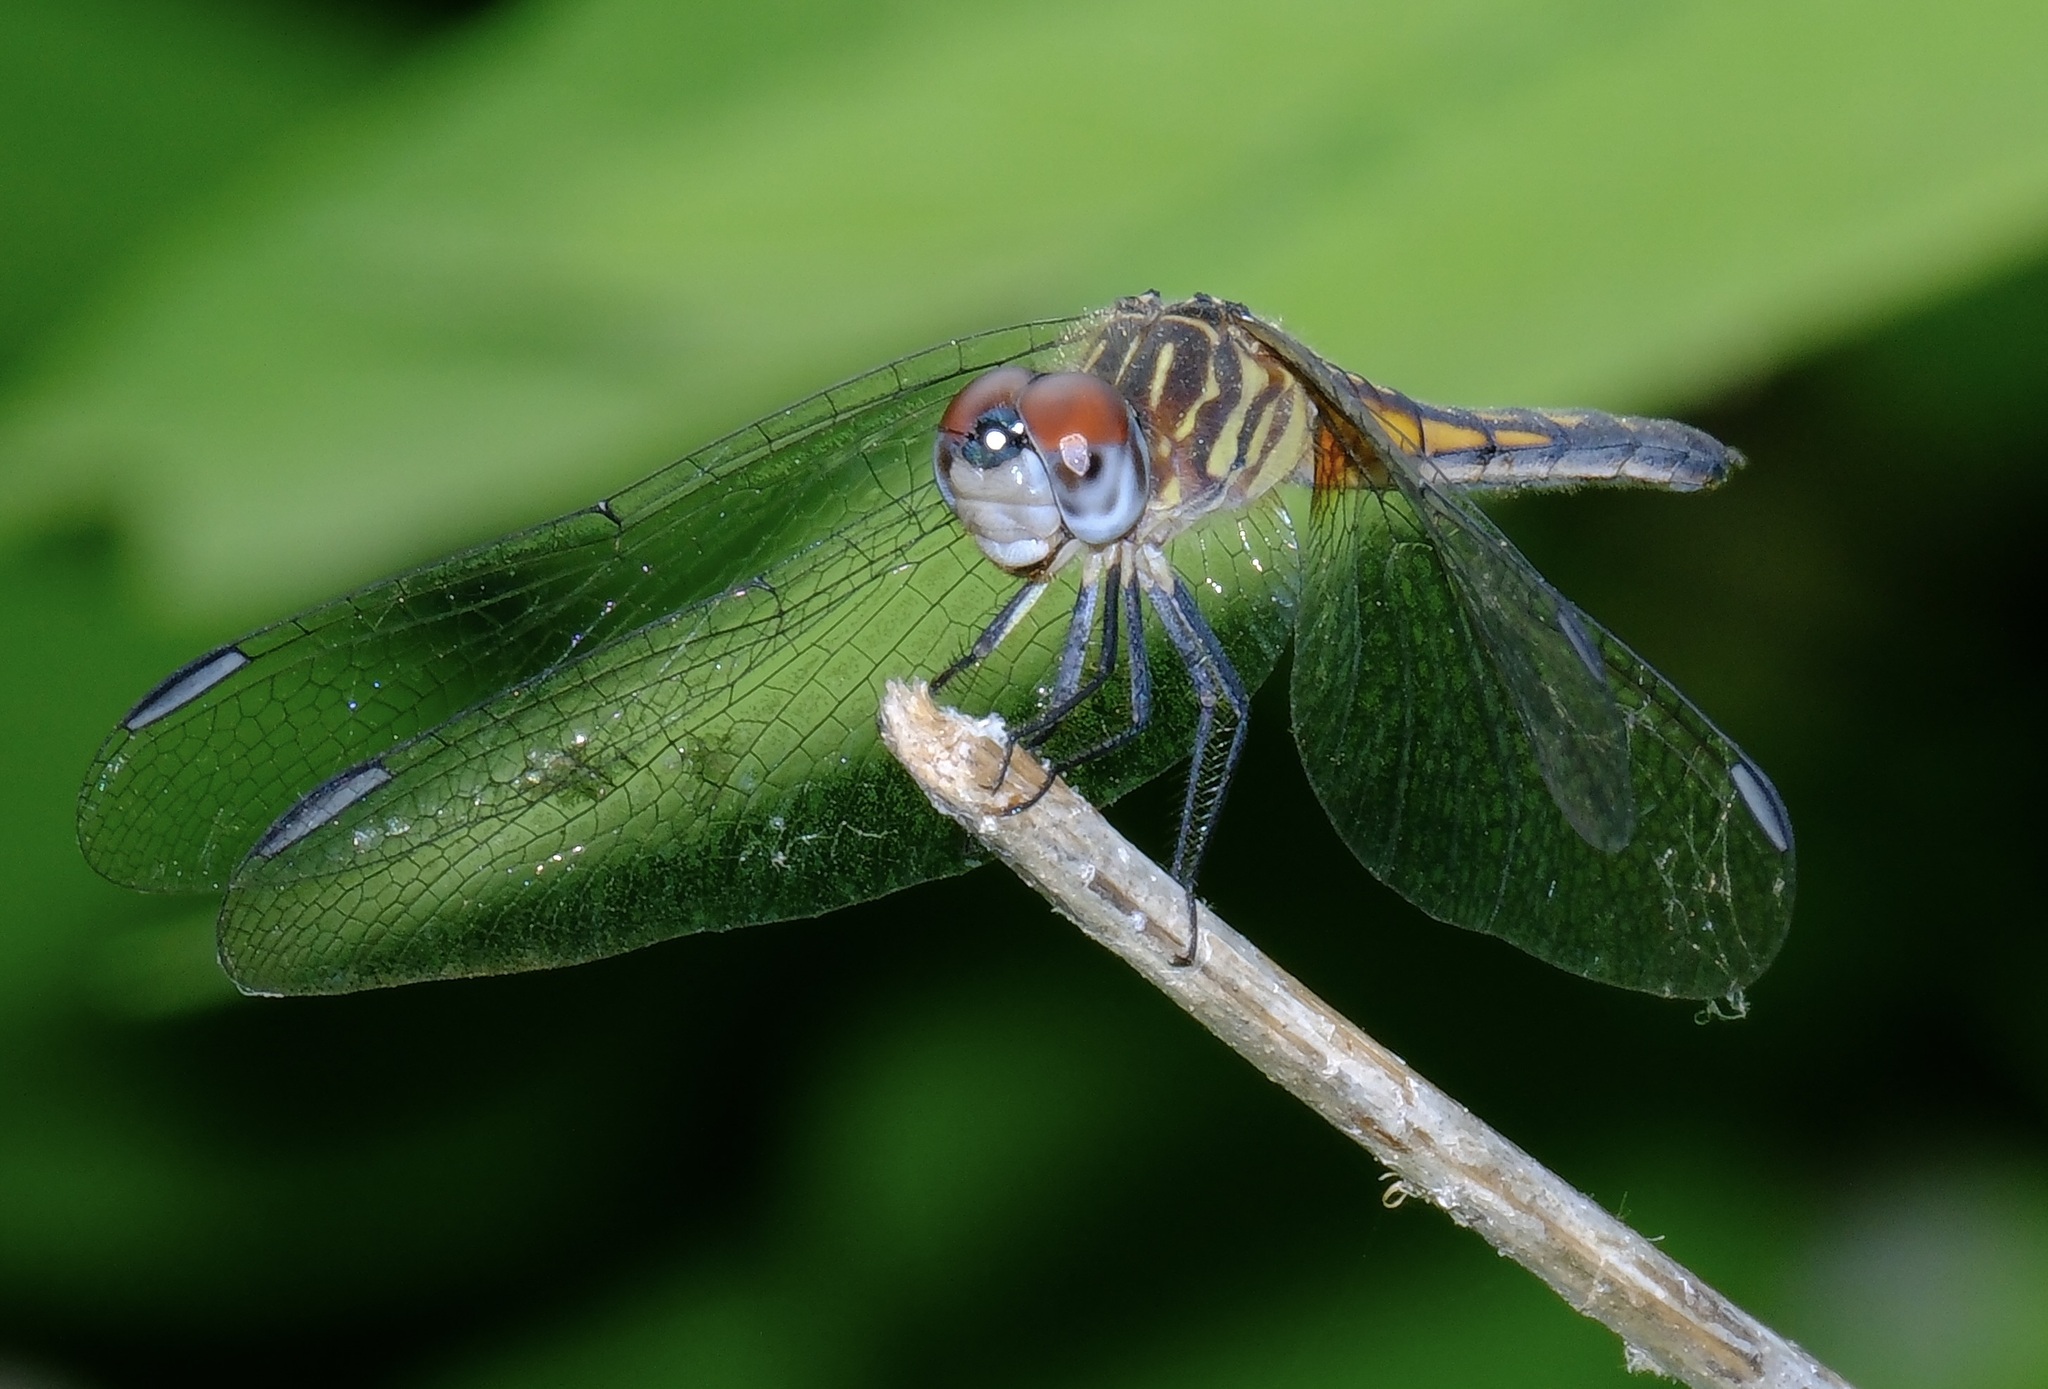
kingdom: Animalia
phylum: Arthropoda
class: Insecta
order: Odonata
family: Libellulidae
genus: Pachydiplax
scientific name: Pachydiplax longipennis
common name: Blue dasher
